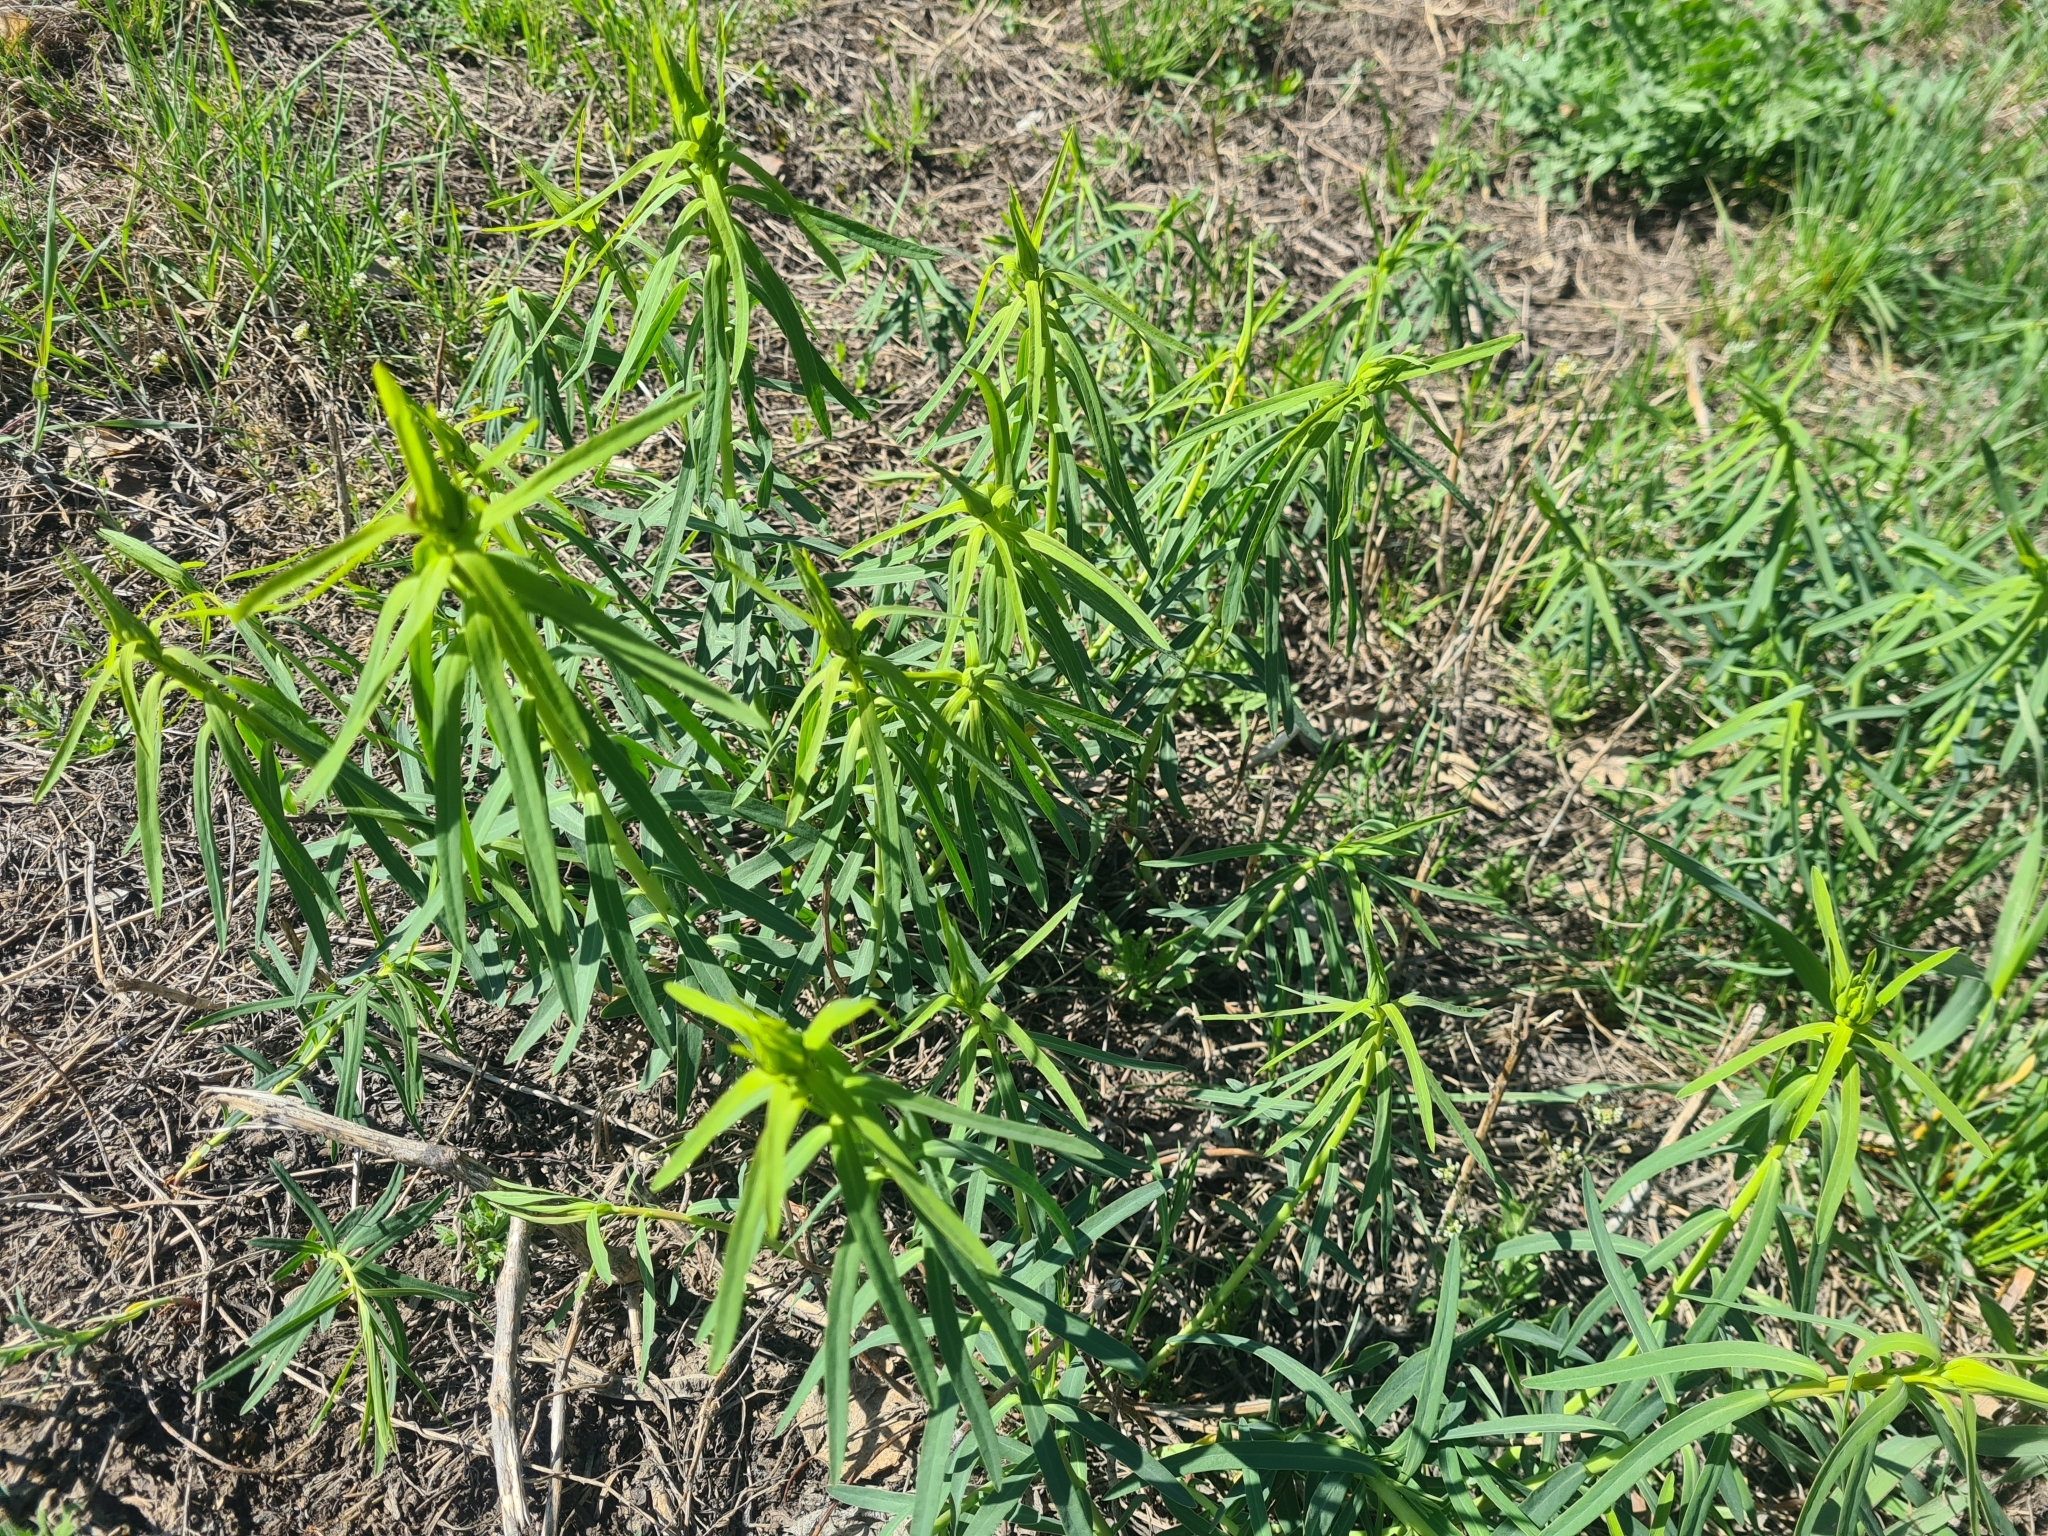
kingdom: Plantae
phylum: Tracheophyta
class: Magnoliopsida
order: Malpighiales
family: Euphorbiaceae
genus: Euphorbia
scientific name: Euphorbia virgata
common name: Leafy spurge
